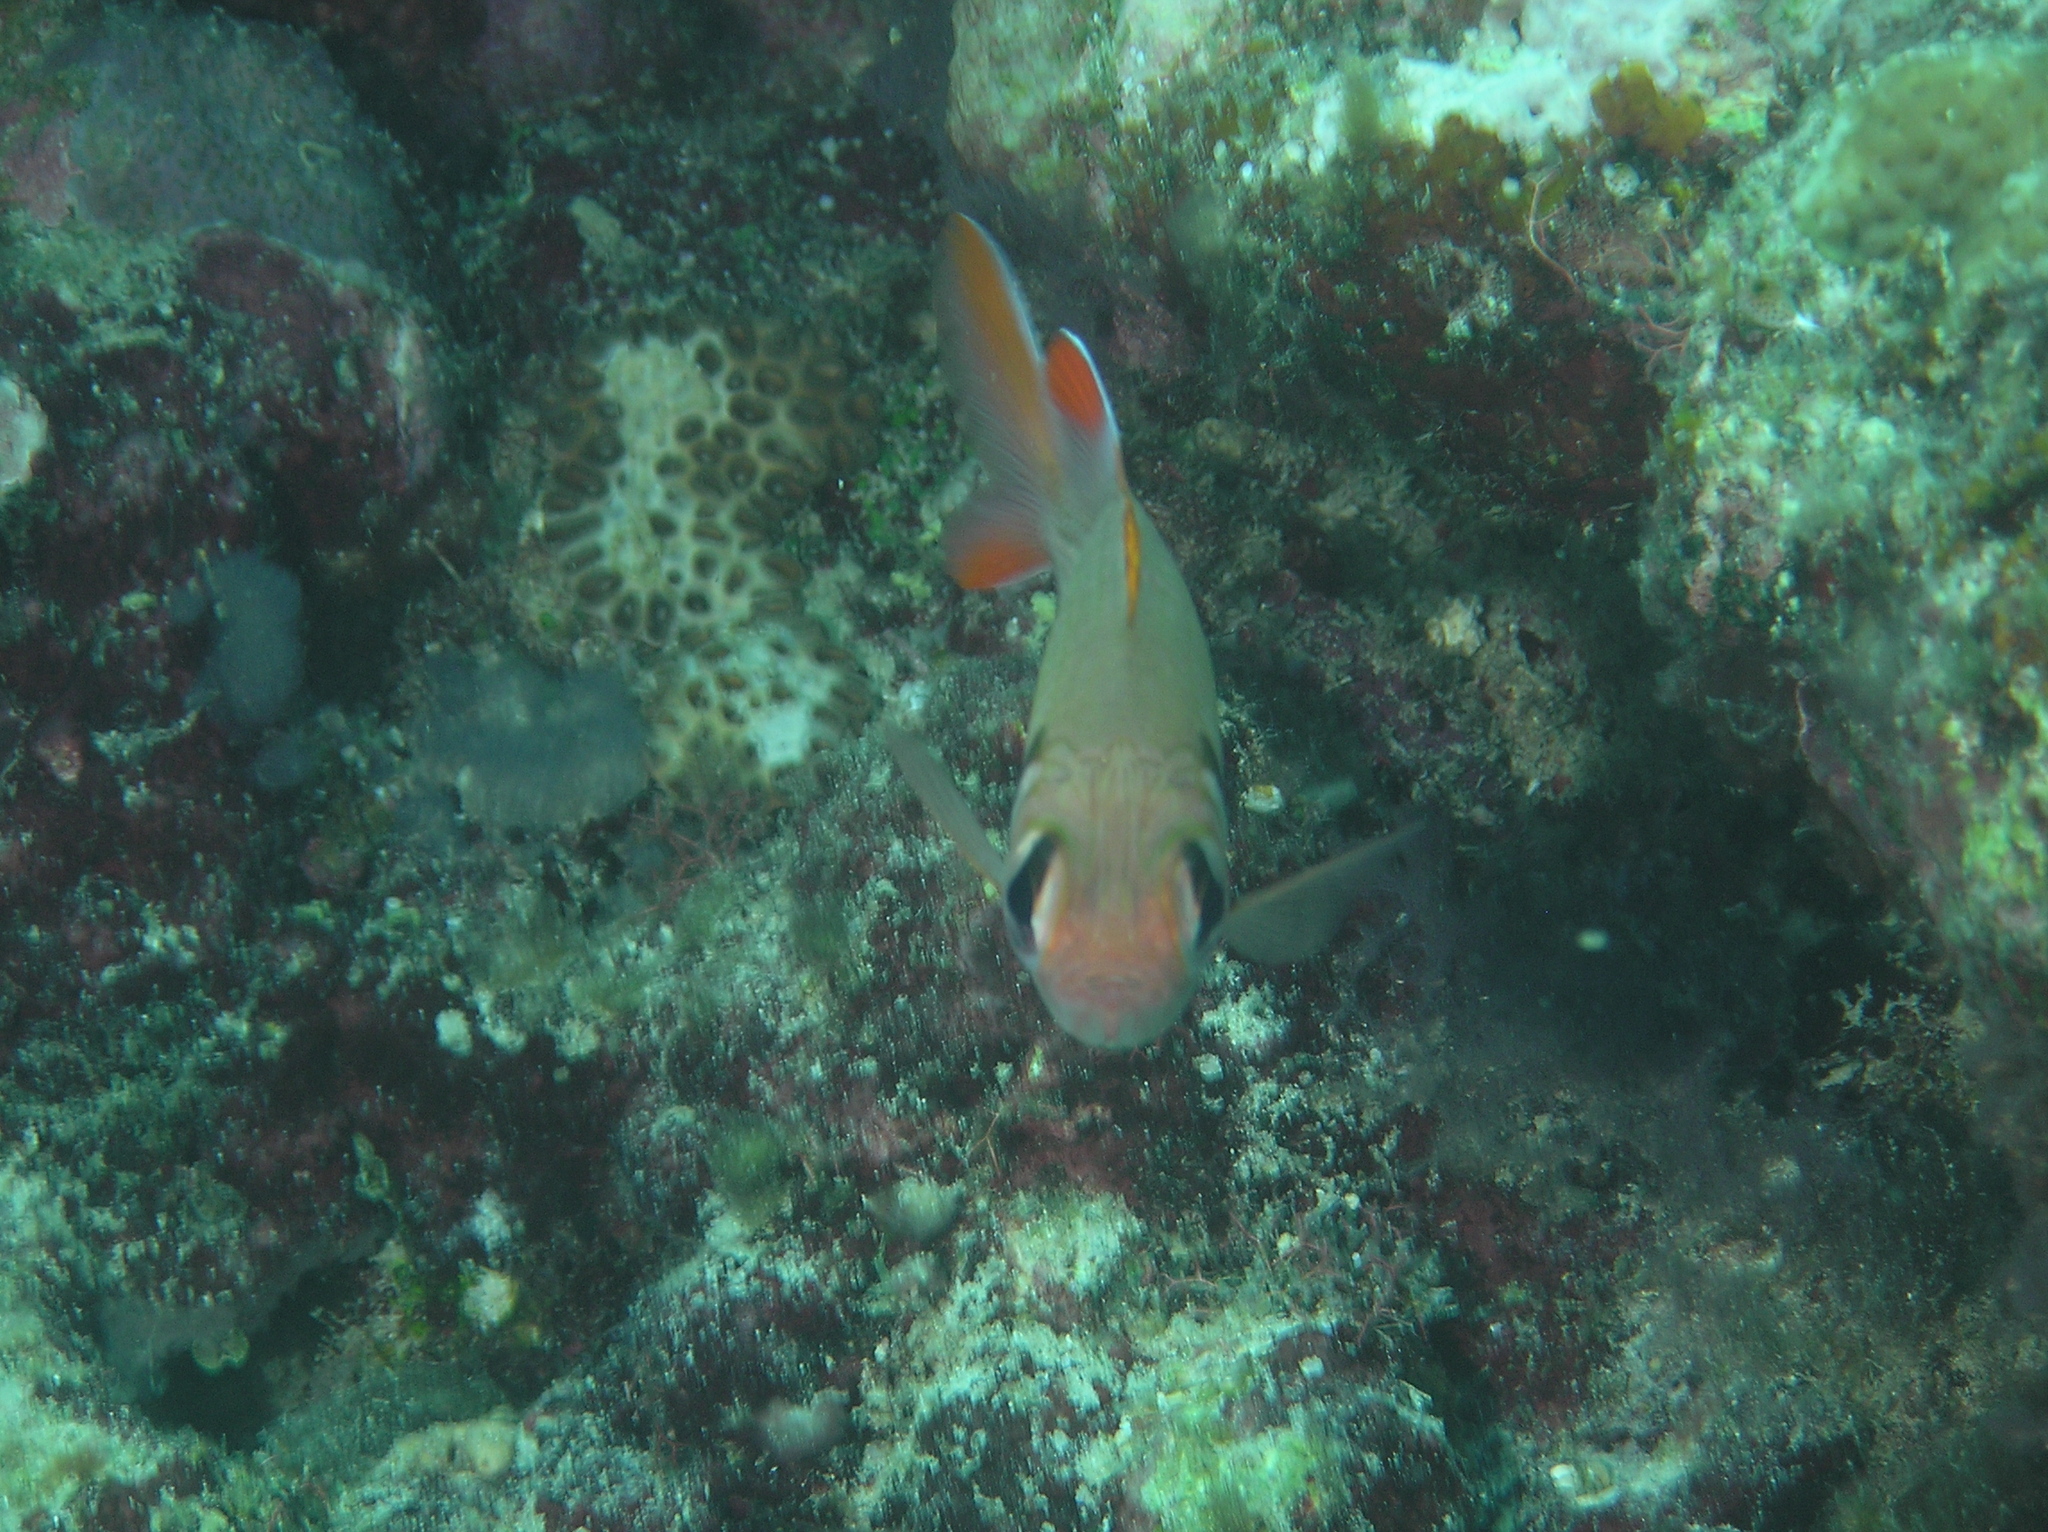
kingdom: Animalia
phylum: Chordata
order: Beryciformes
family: Holocentridae
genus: Myripristis
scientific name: Myripristis kuntee
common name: Epaulette soldierfish
